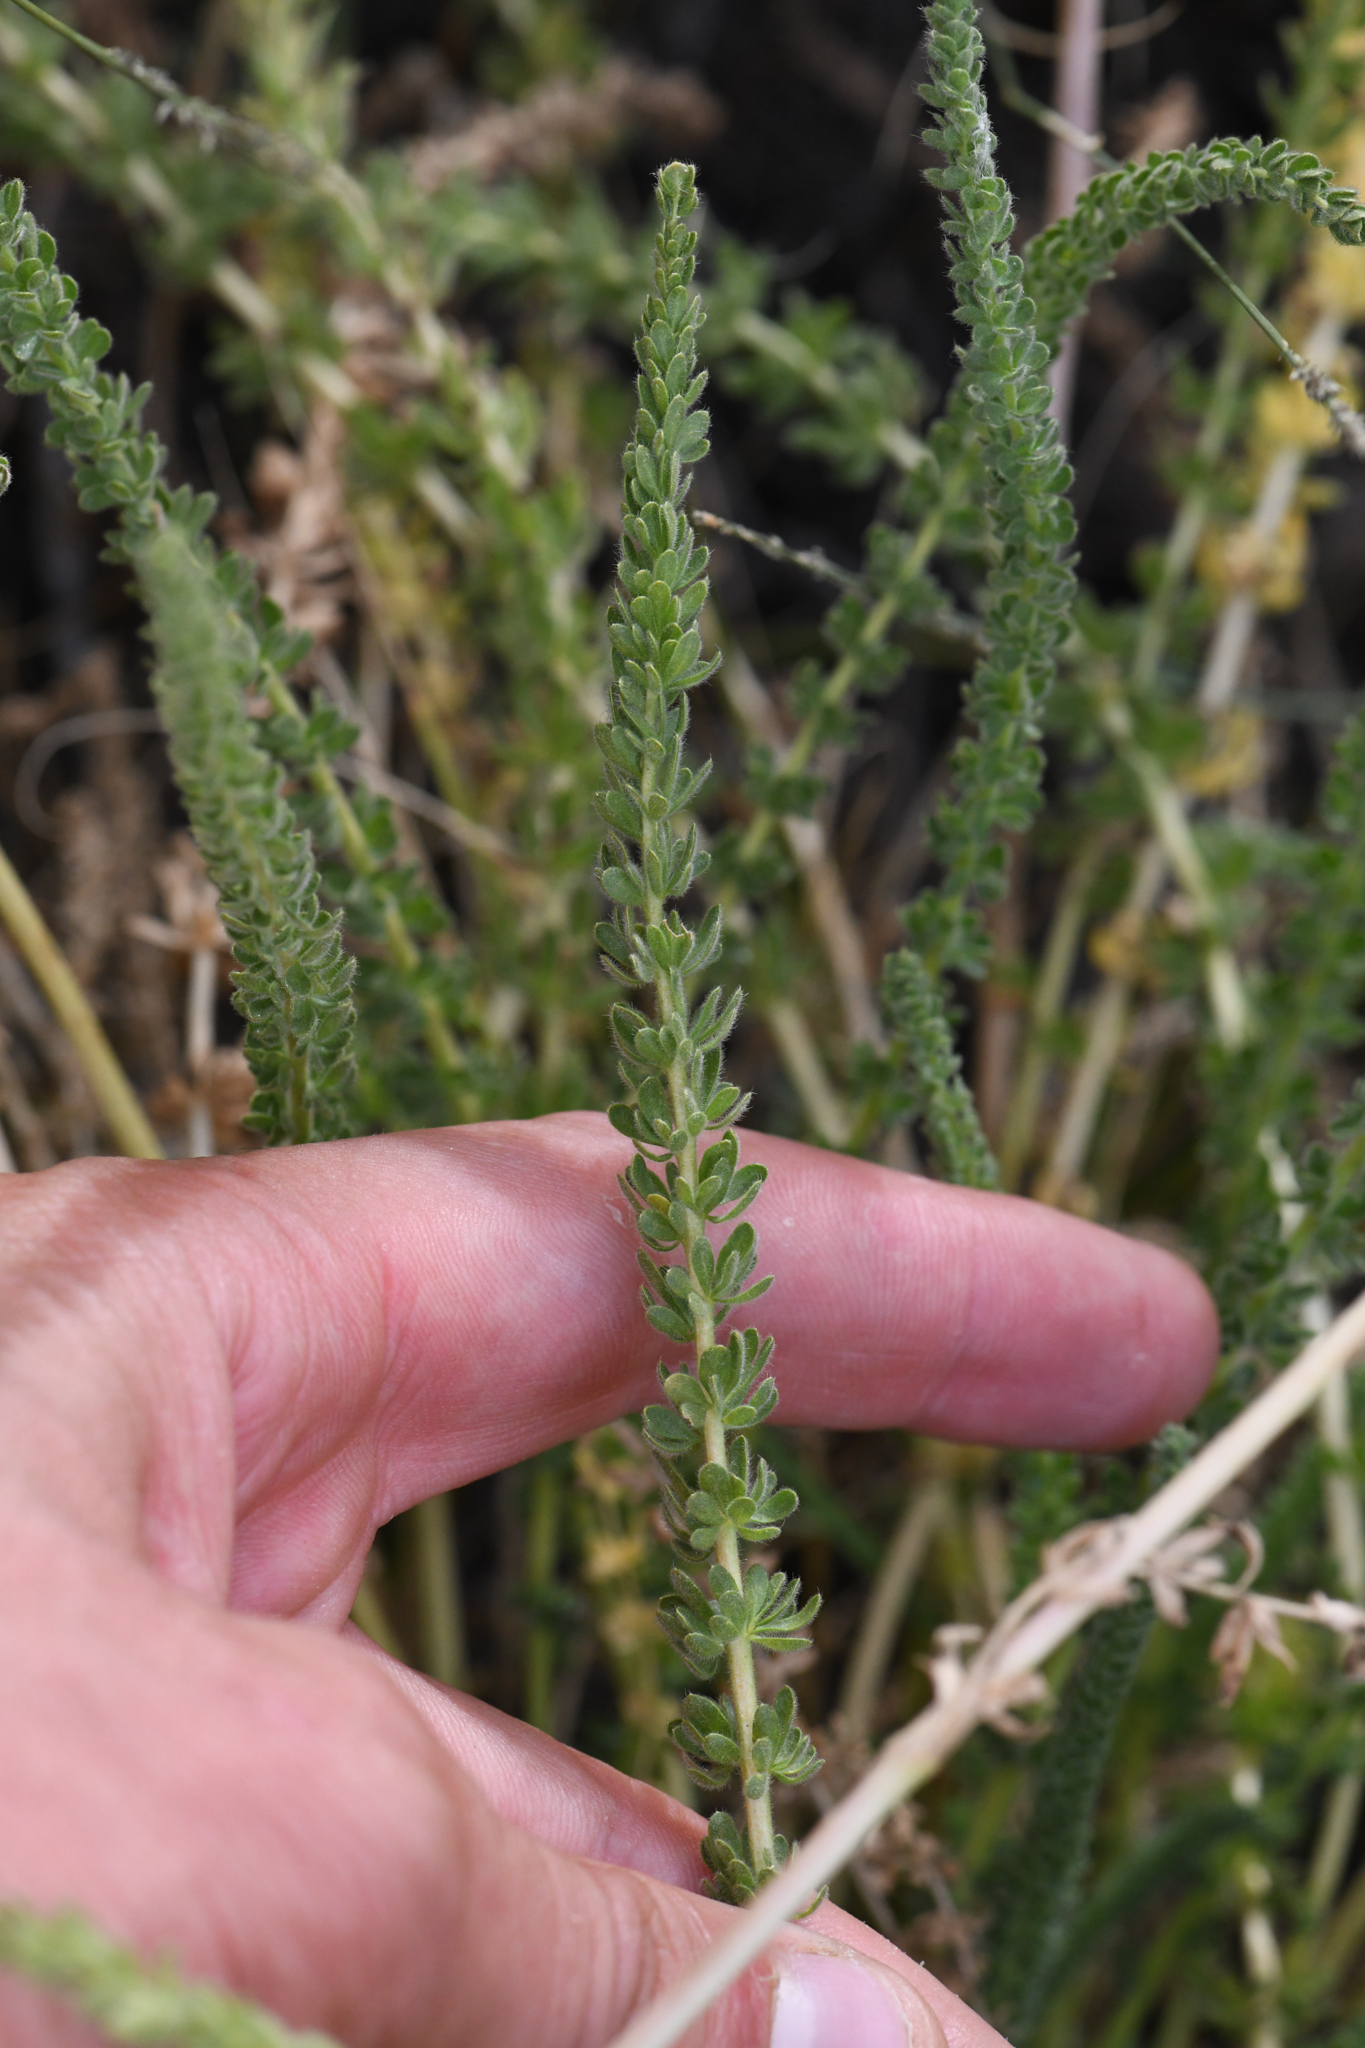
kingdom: Plantae
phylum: Tracheophyta
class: Magnoliopsida
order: Rosales
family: Rosaceae
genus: Potentilla
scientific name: Potentilla congdonis
